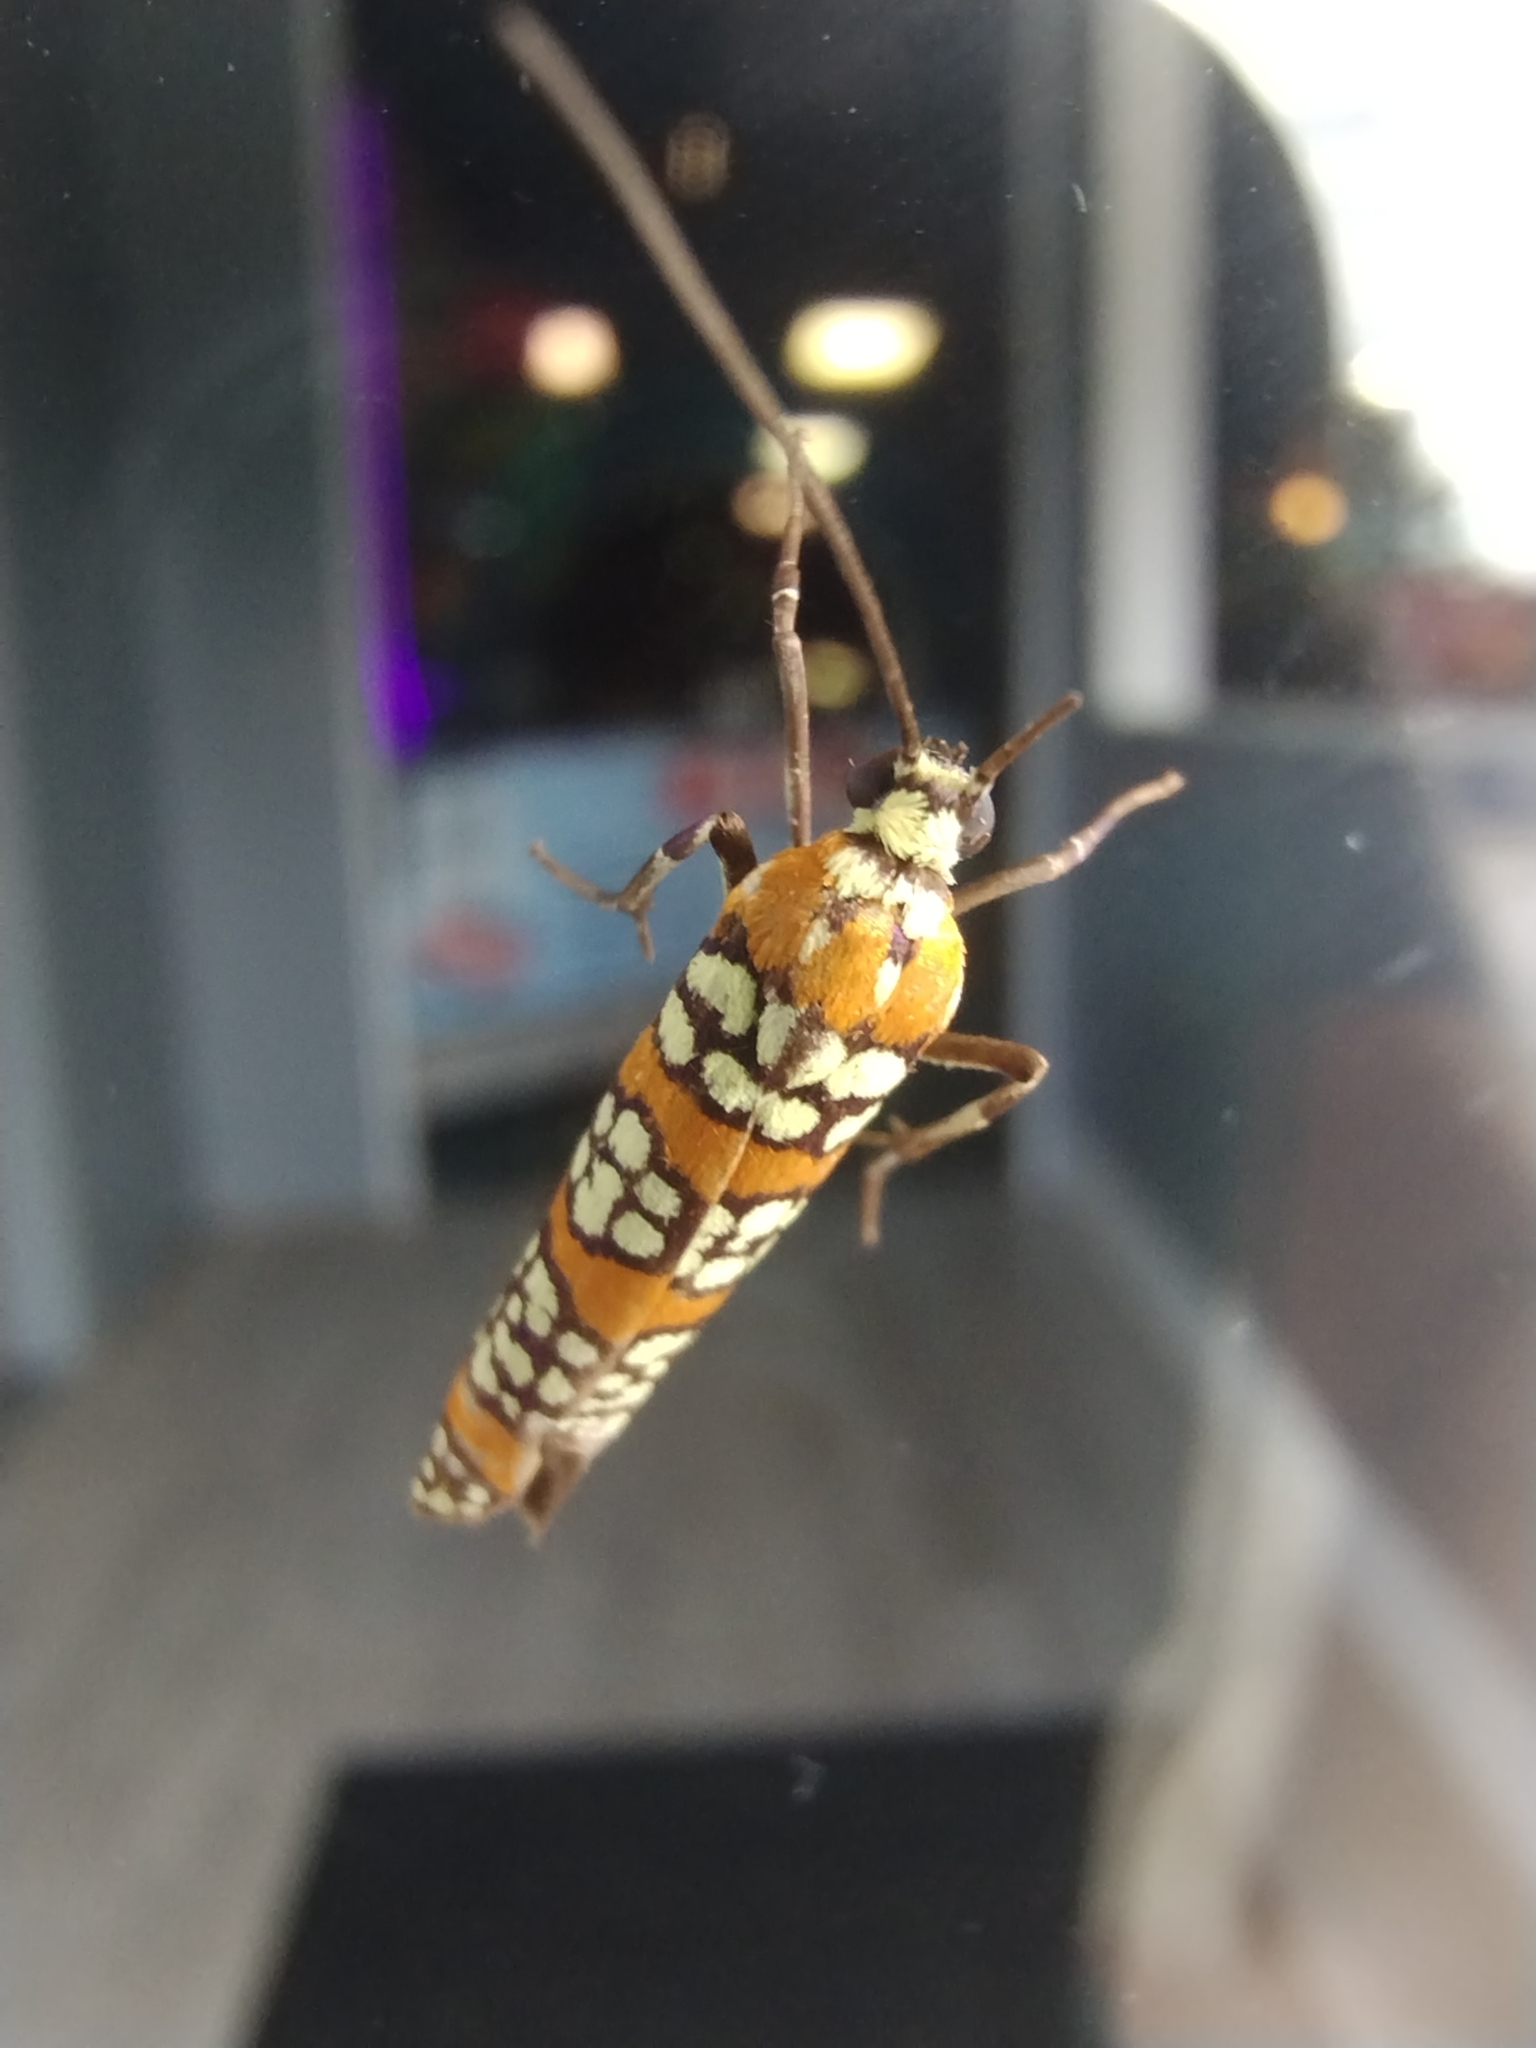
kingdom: Animalia
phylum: Arthropoda
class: Insecta
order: Lepidoptera
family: Attevidae
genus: Atteva
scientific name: Atteva punctella
